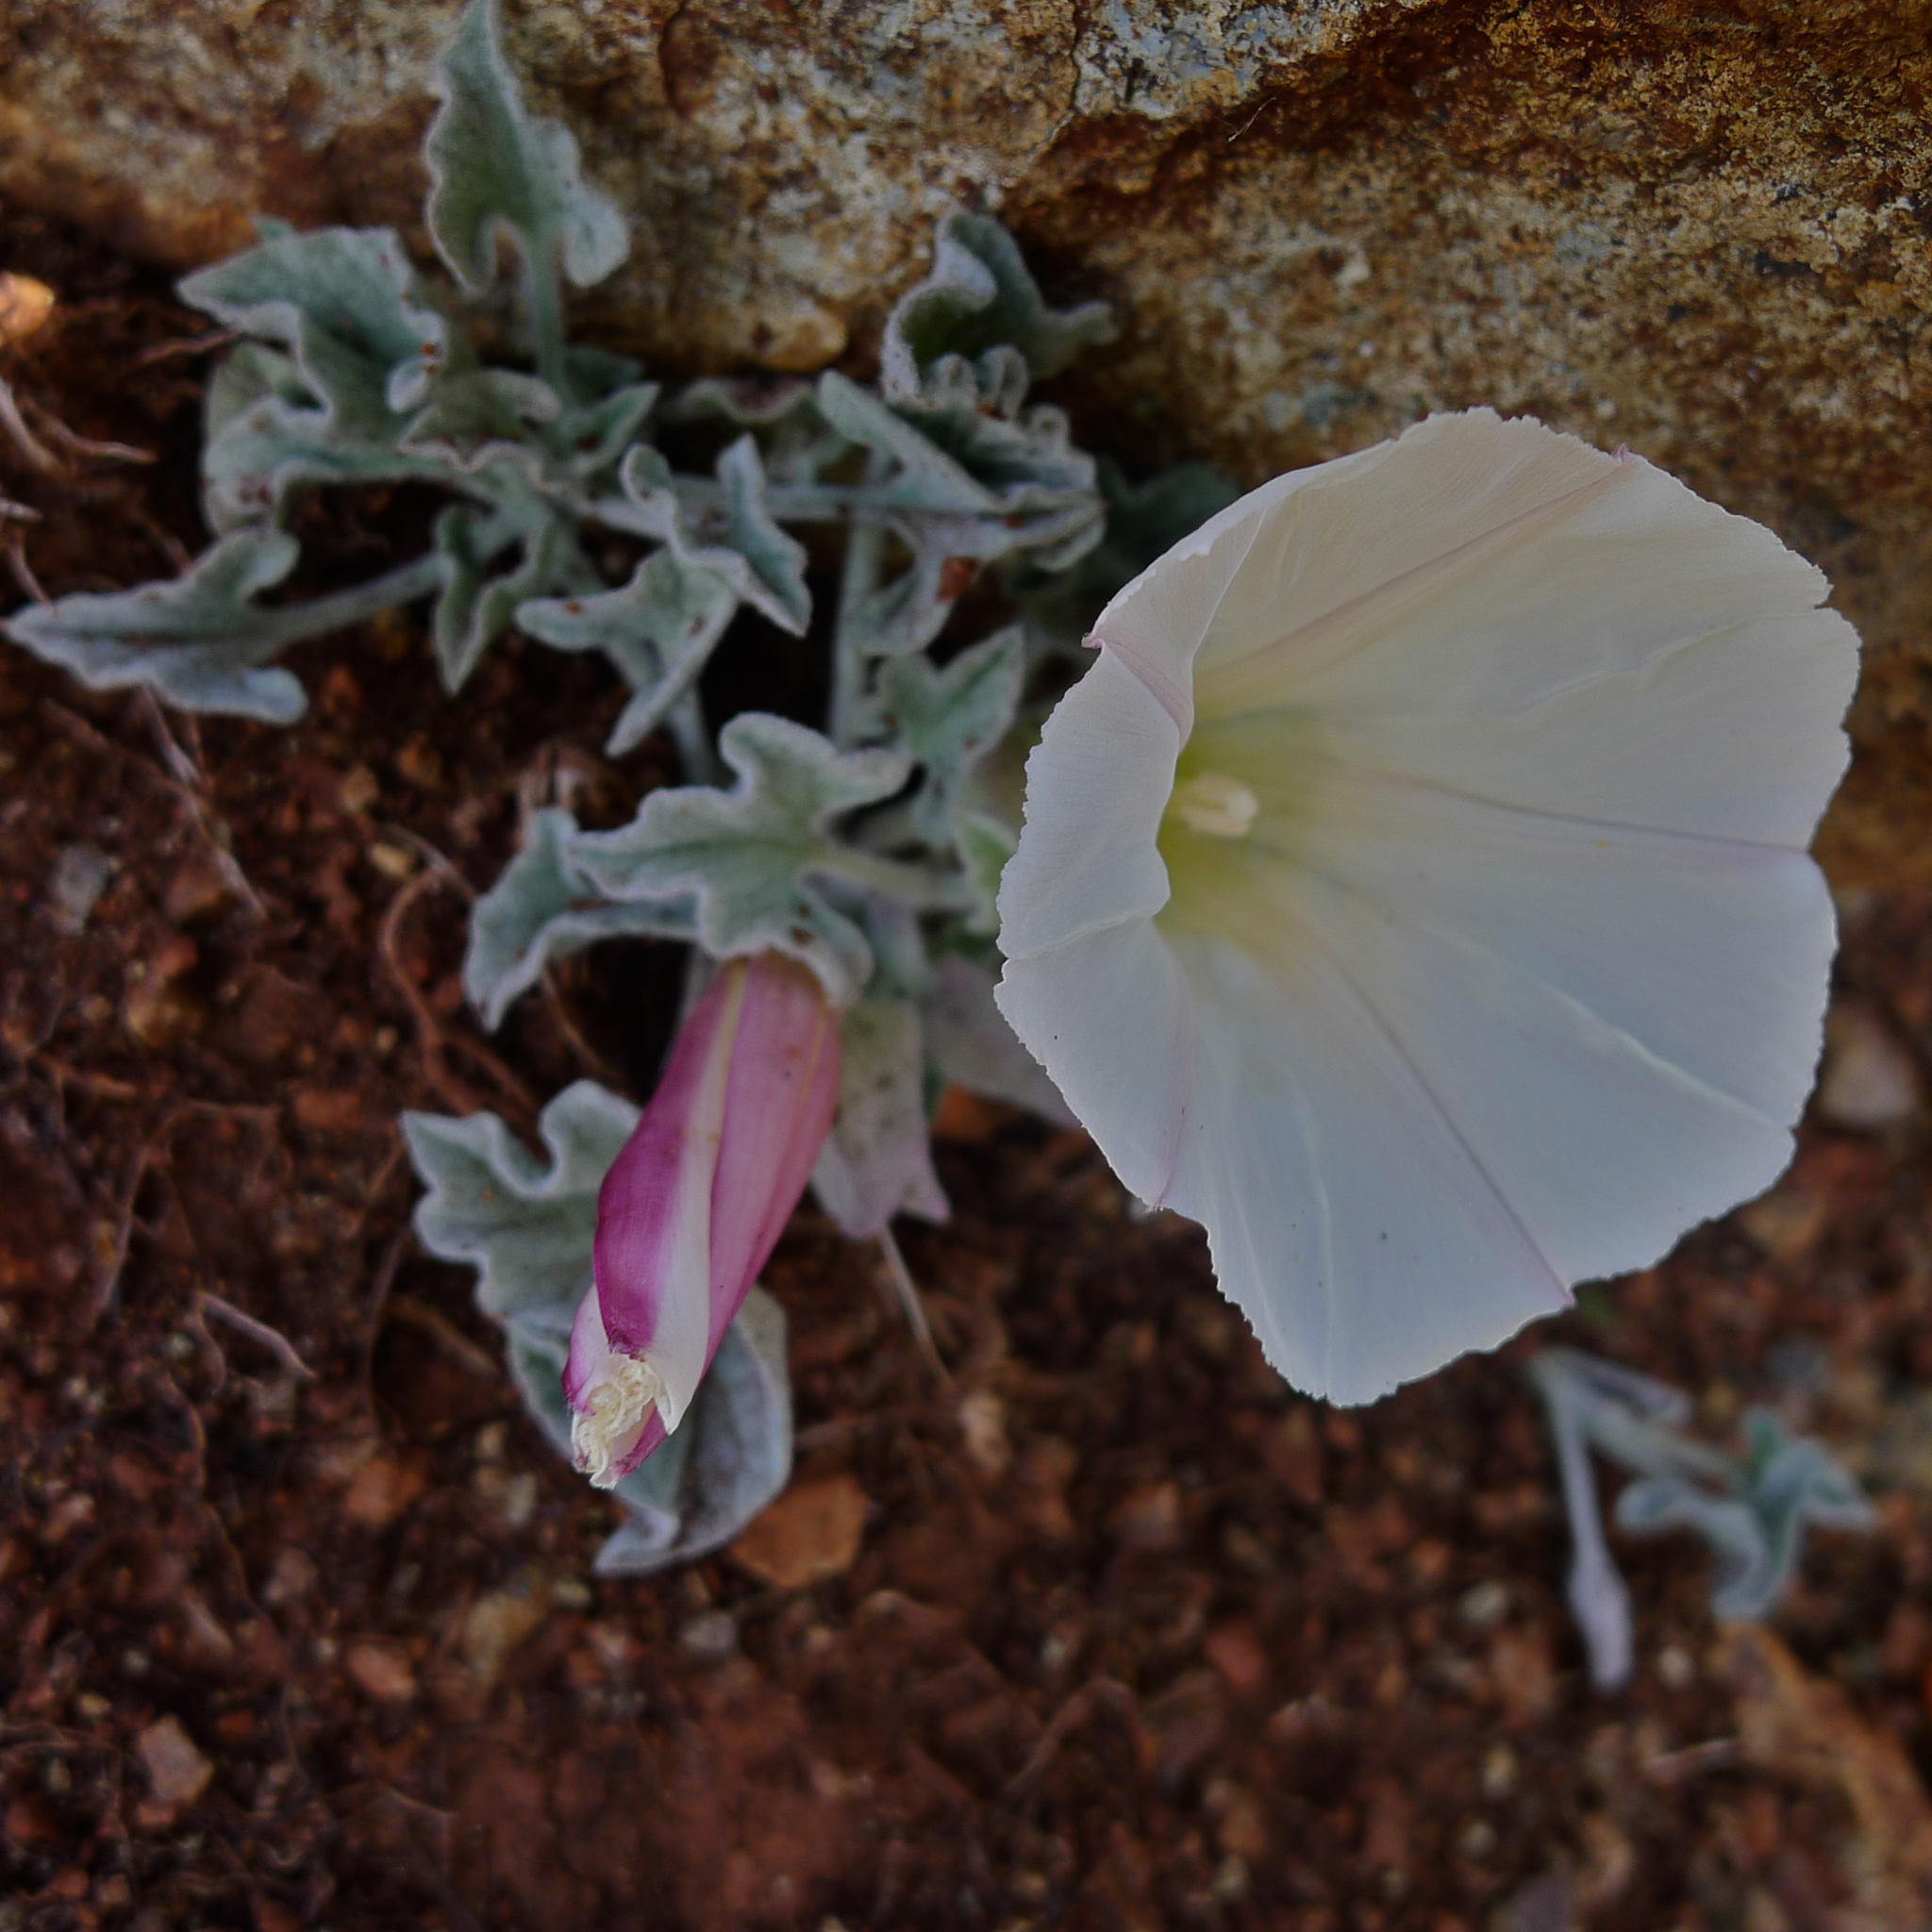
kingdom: Plantae
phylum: Tracheophyta
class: Magnoliopsida
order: Solanales
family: Convolvulaceae
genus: Calystegia
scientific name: Calystegia collina
